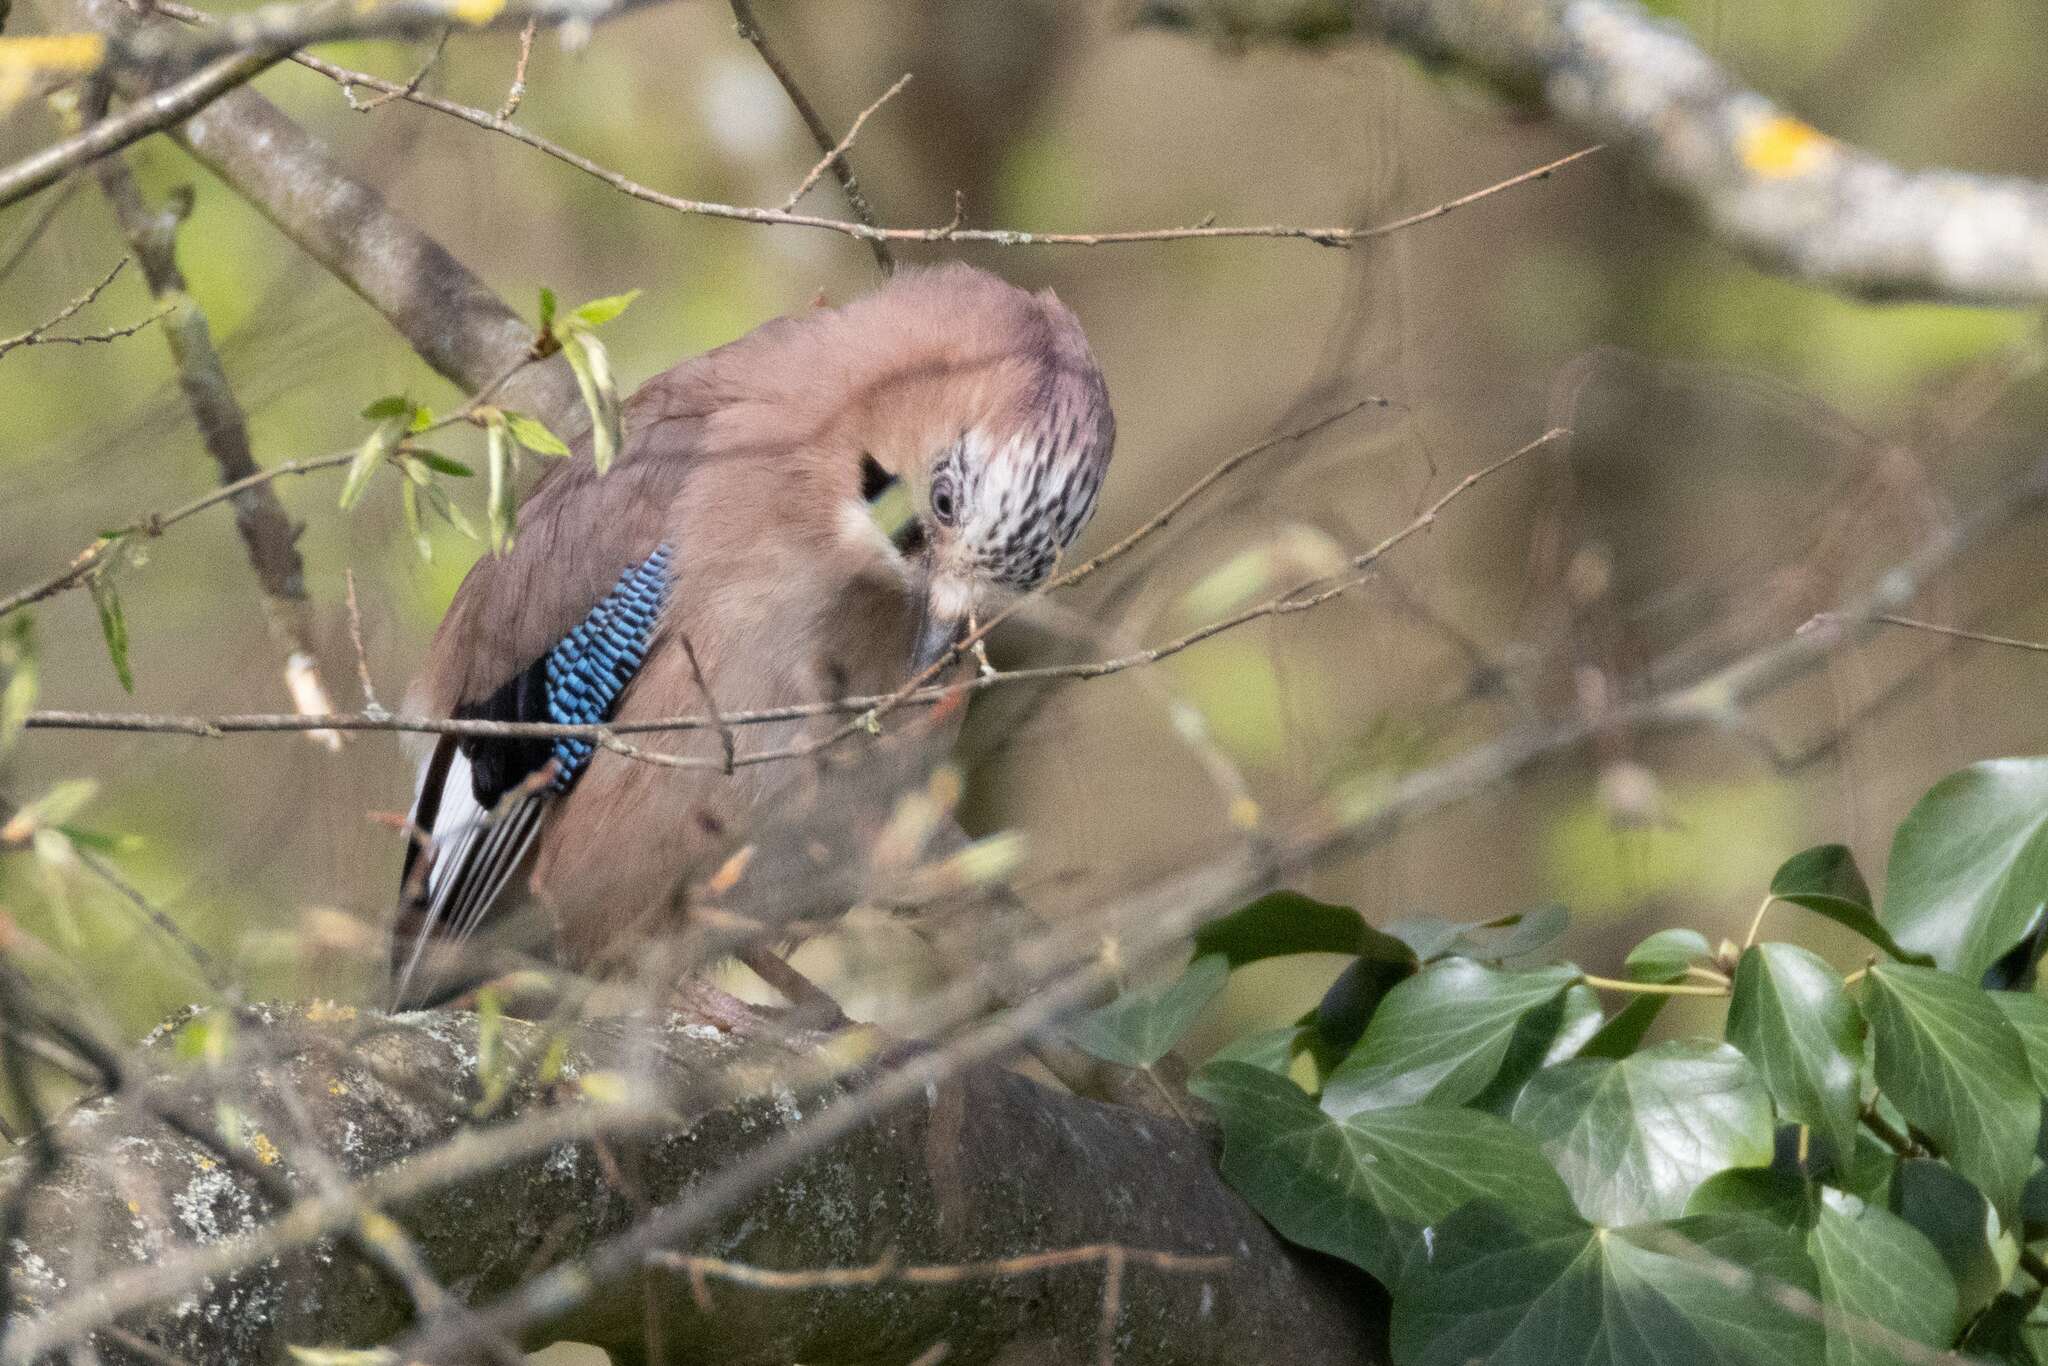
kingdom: Animalia
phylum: Chordata
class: Aves
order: Passeriformes
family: Corvidae
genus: Garrulus
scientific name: Garrulus glandarius
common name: Eurasian jay
